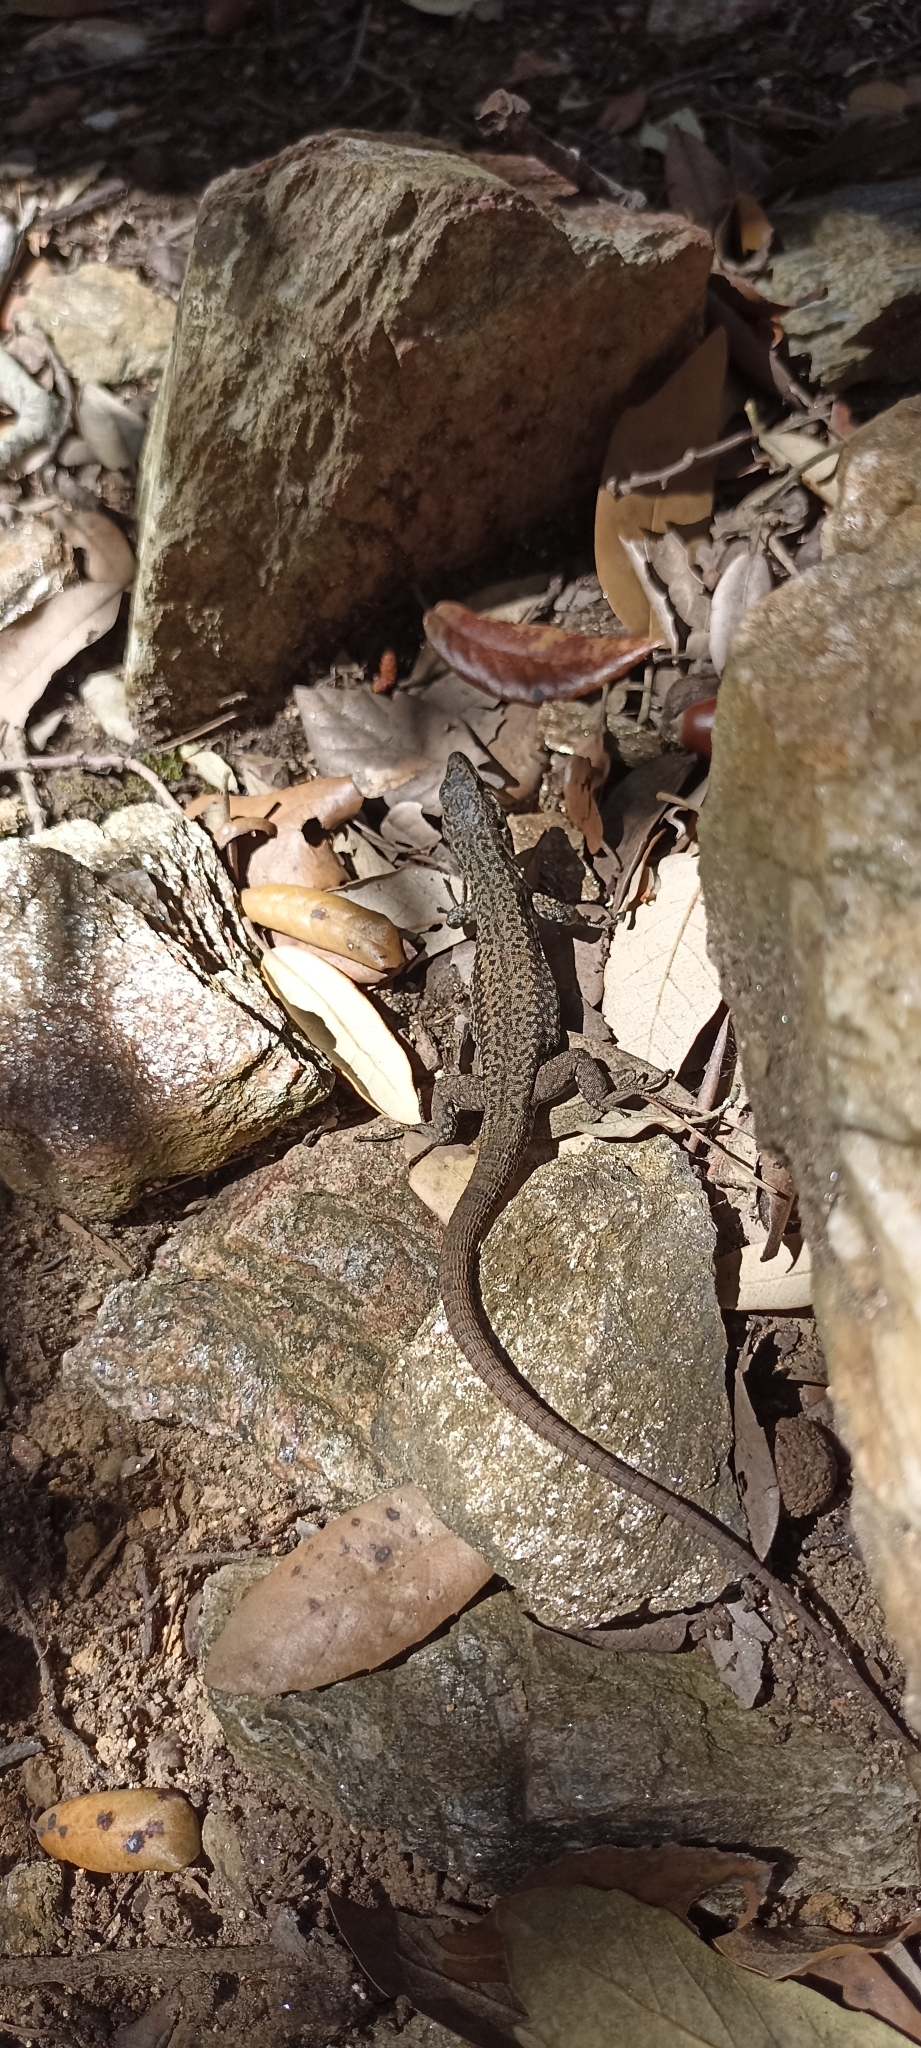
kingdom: Animalia
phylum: Chordata
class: Squamata
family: Lacertidae
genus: Podarcis
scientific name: Podarcis muralis
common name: Common wall lizard
